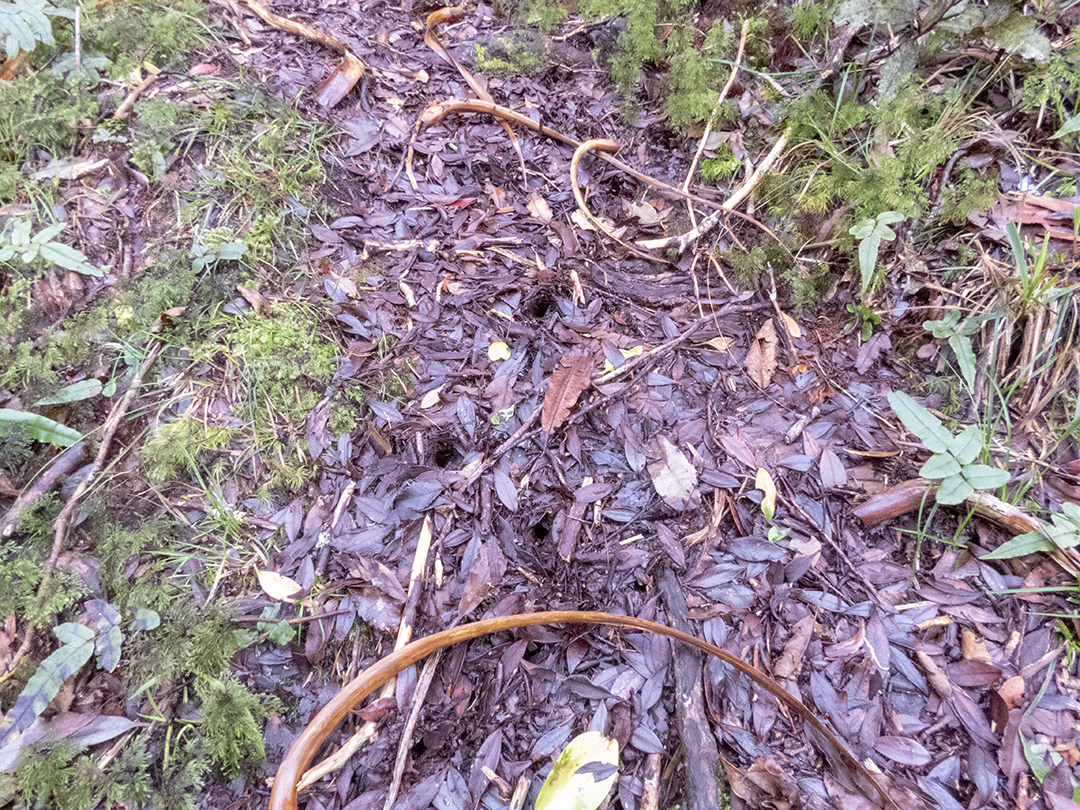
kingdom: Animalia
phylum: Chordata
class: Aves
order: Apterygiformes
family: Apterygidae
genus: Apteryx
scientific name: Apteryx haastii
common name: Great spotted kiwi
